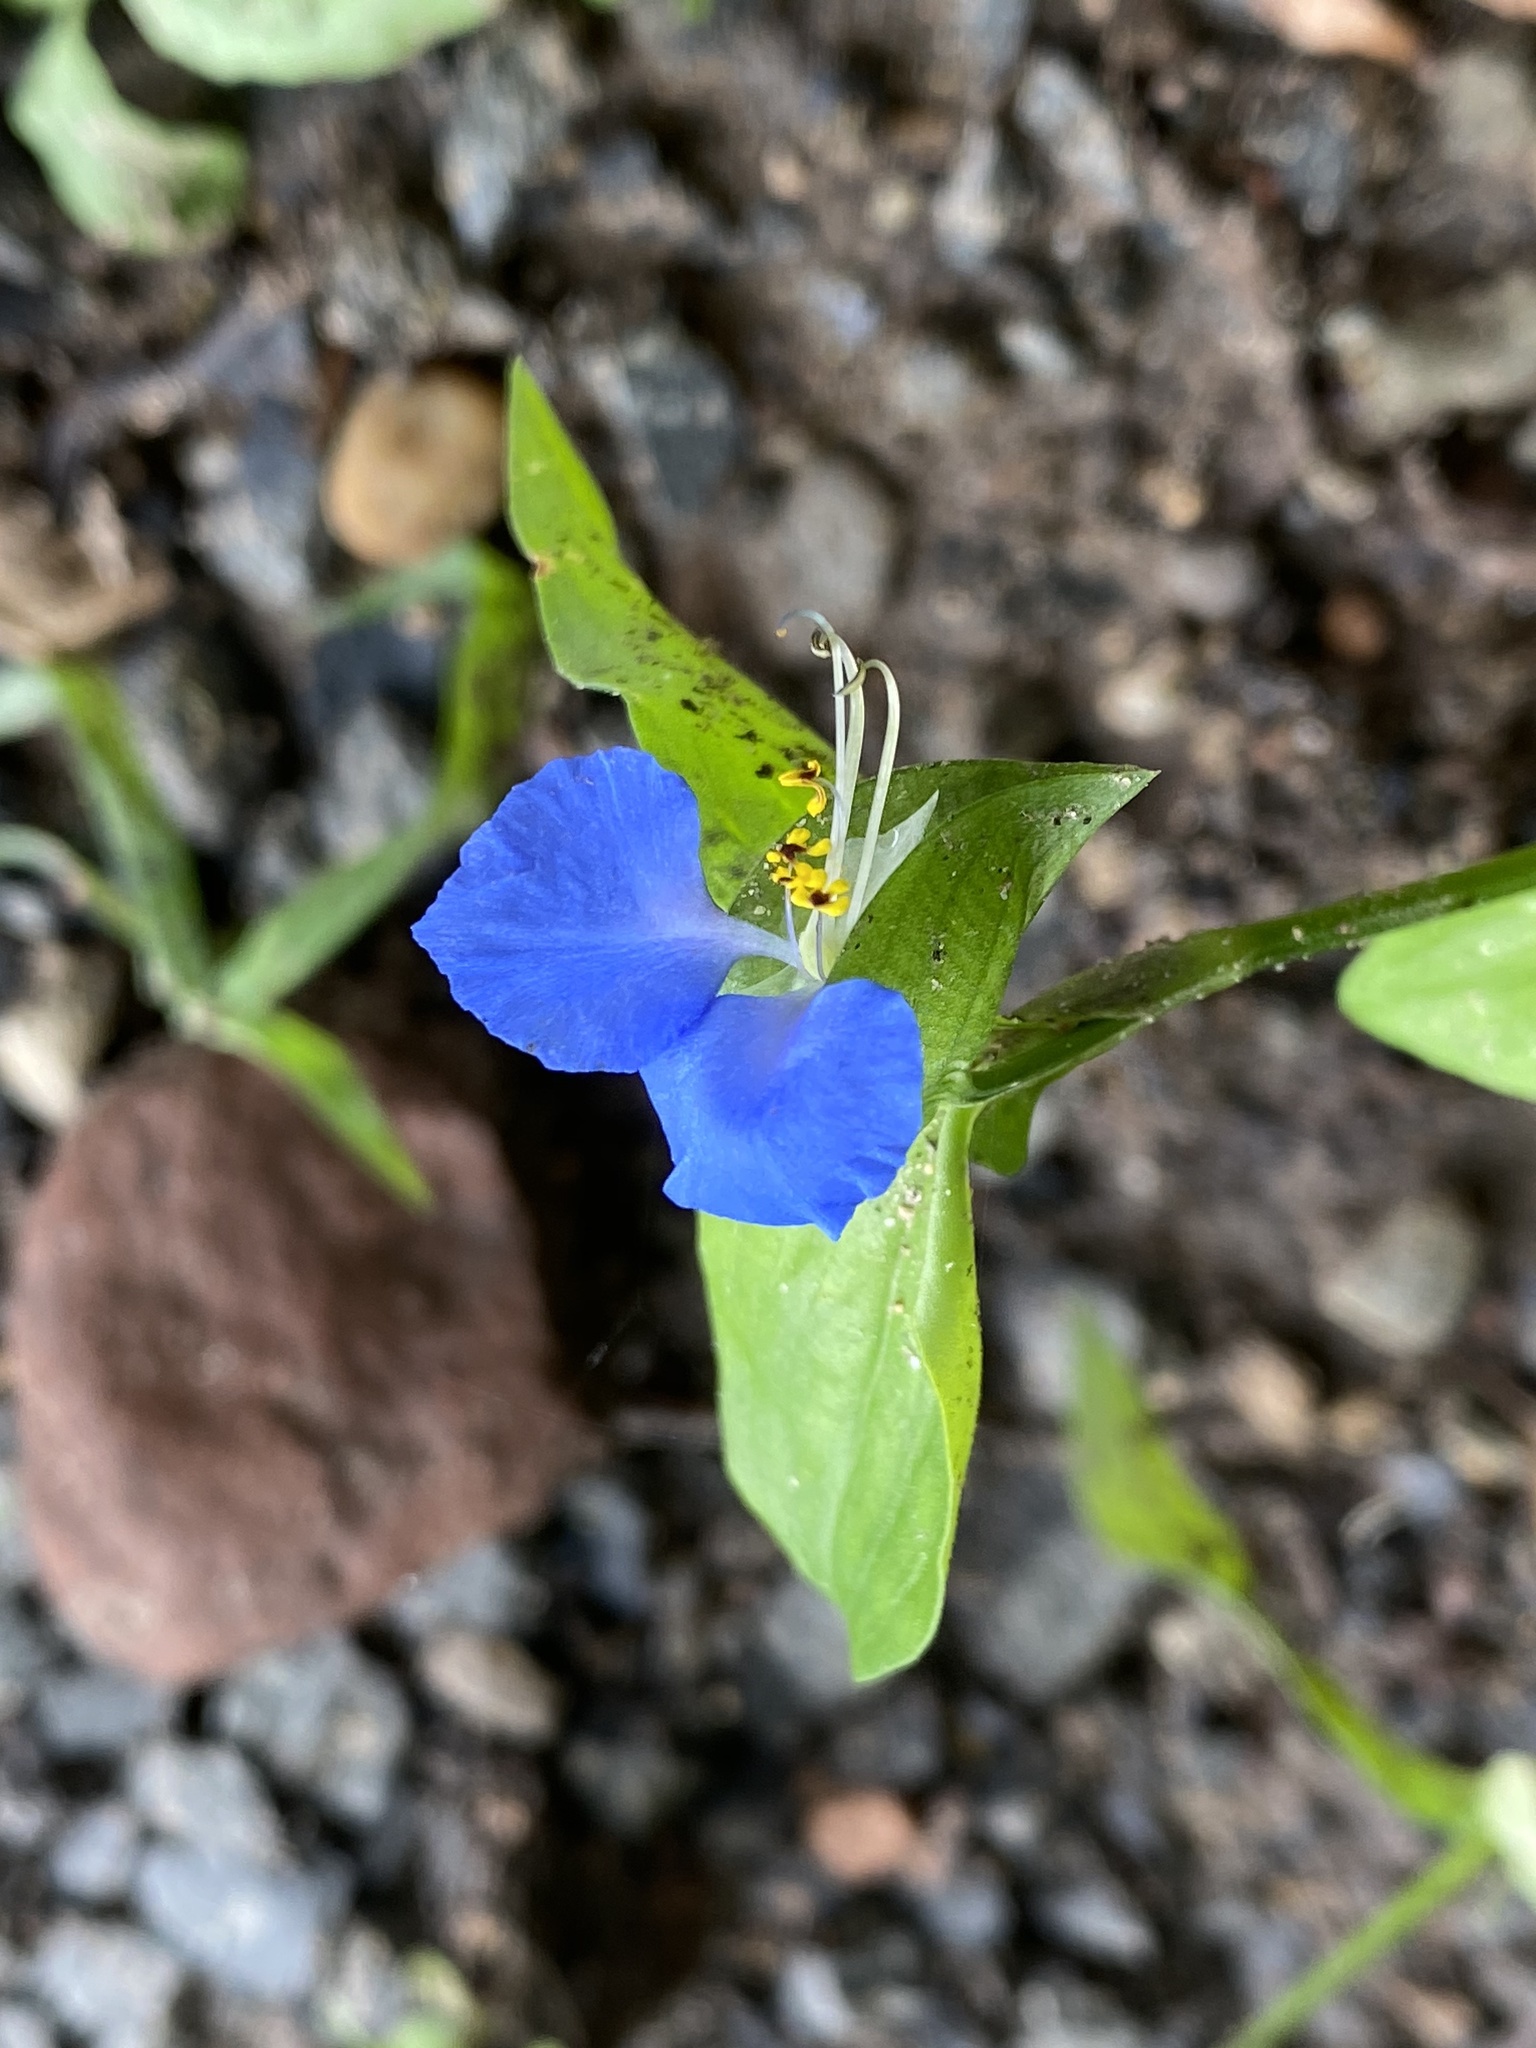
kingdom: Plantae
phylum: Tracheophyta
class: Liliopsida
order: Commelinales
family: Commelinaceae
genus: Commelina
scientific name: Commelina communis
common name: Asiatic dayflower
